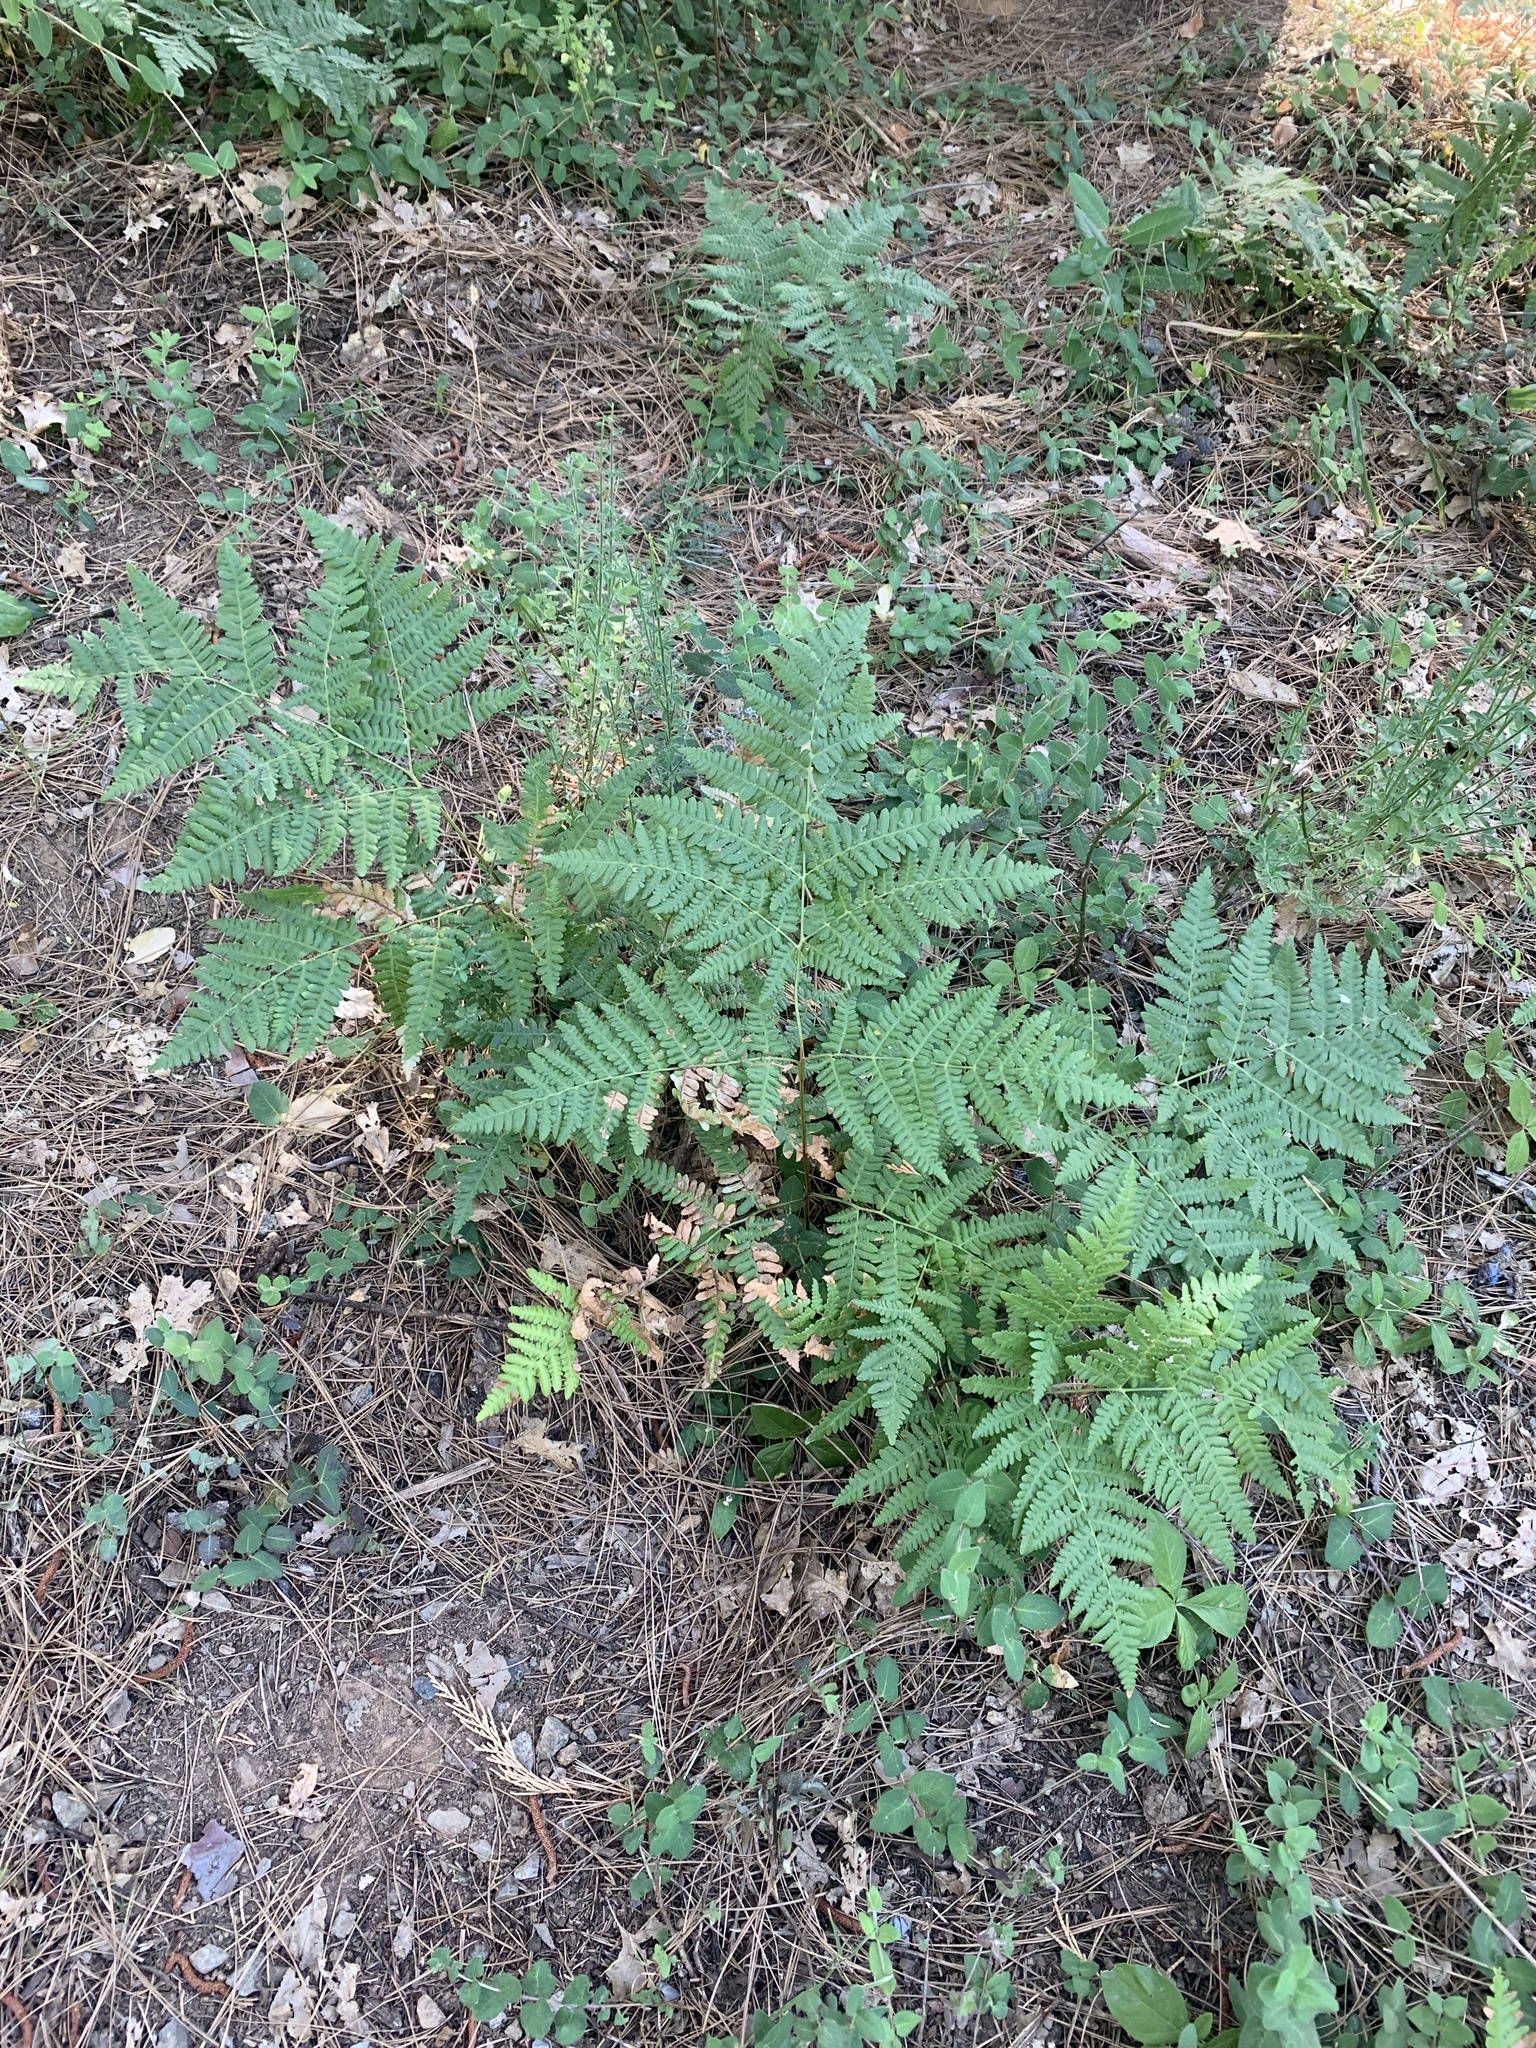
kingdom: Plantae
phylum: Tracheophyta
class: Polypodiopsida
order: Polypodiales
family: Dennstaedtiaceae
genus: Pteridium
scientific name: Pteridium aquilinum
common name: Bracken
